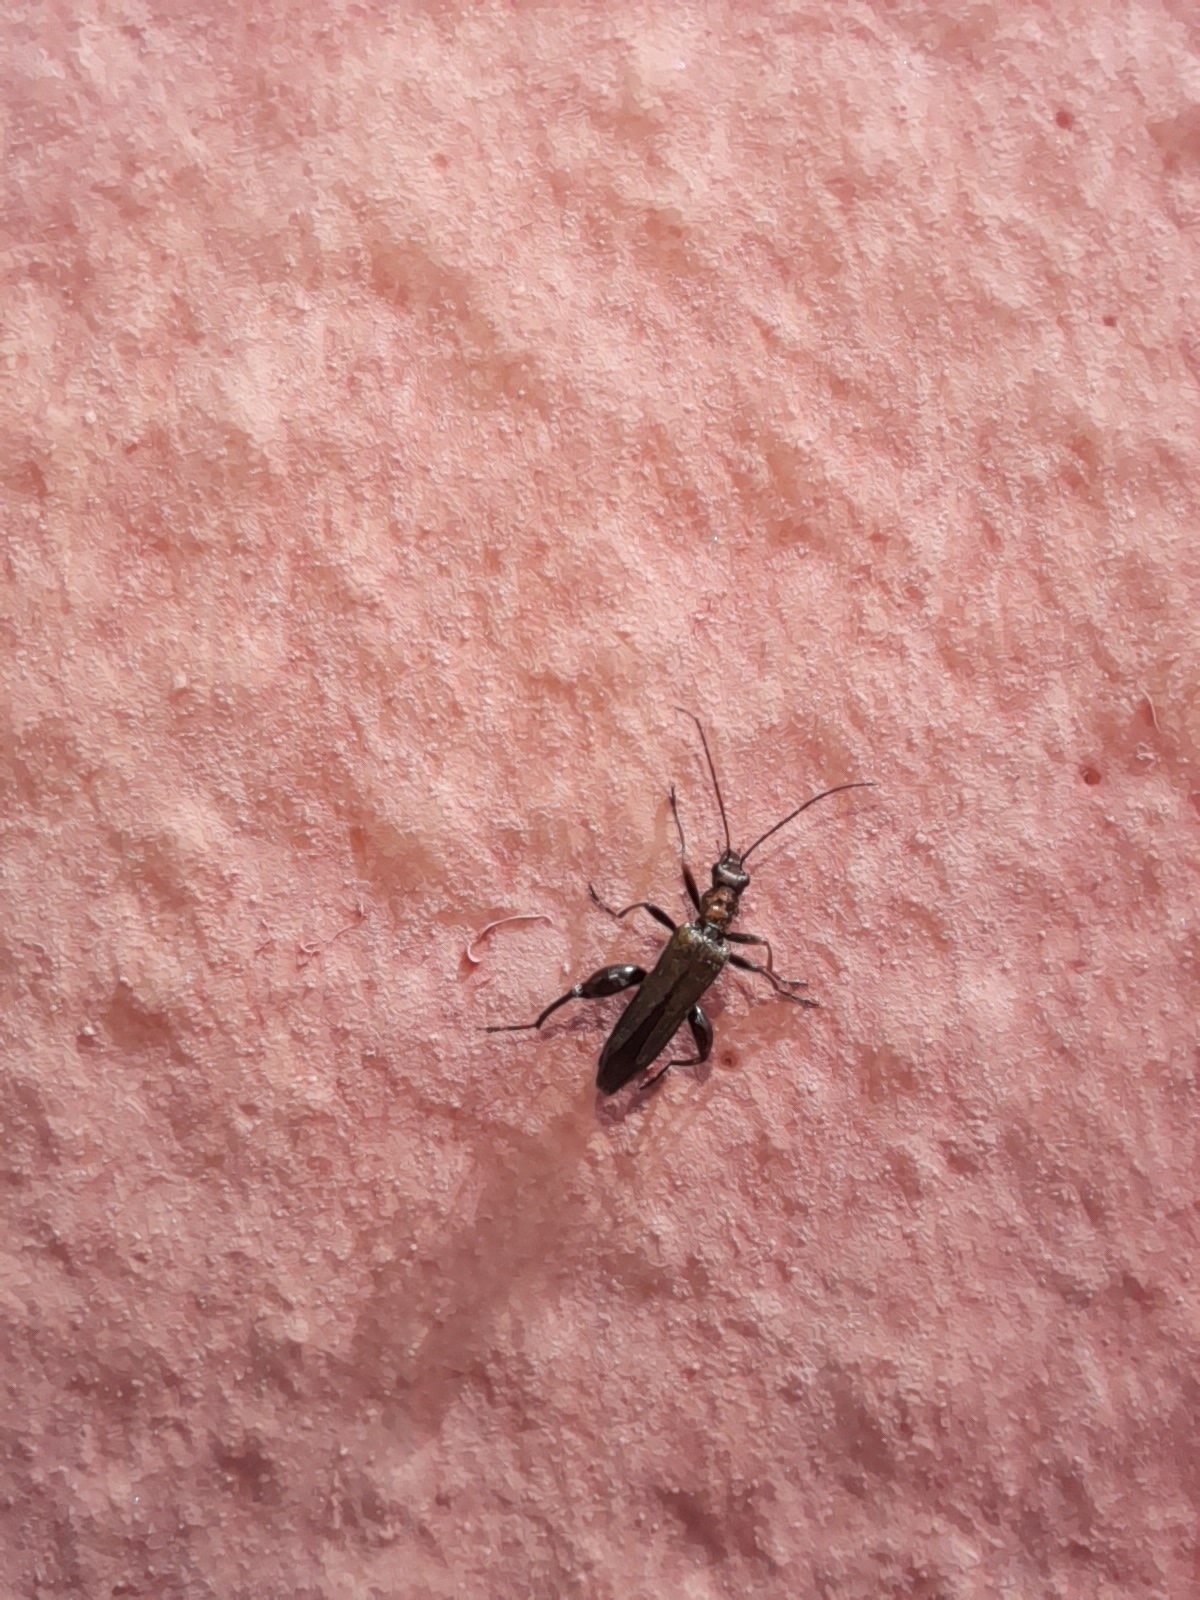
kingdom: Animalia
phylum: Arthropoda
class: Insecta
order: Coleoptera
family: Oedemeridae
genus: Oedemera
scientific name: Oedemera flavipes
